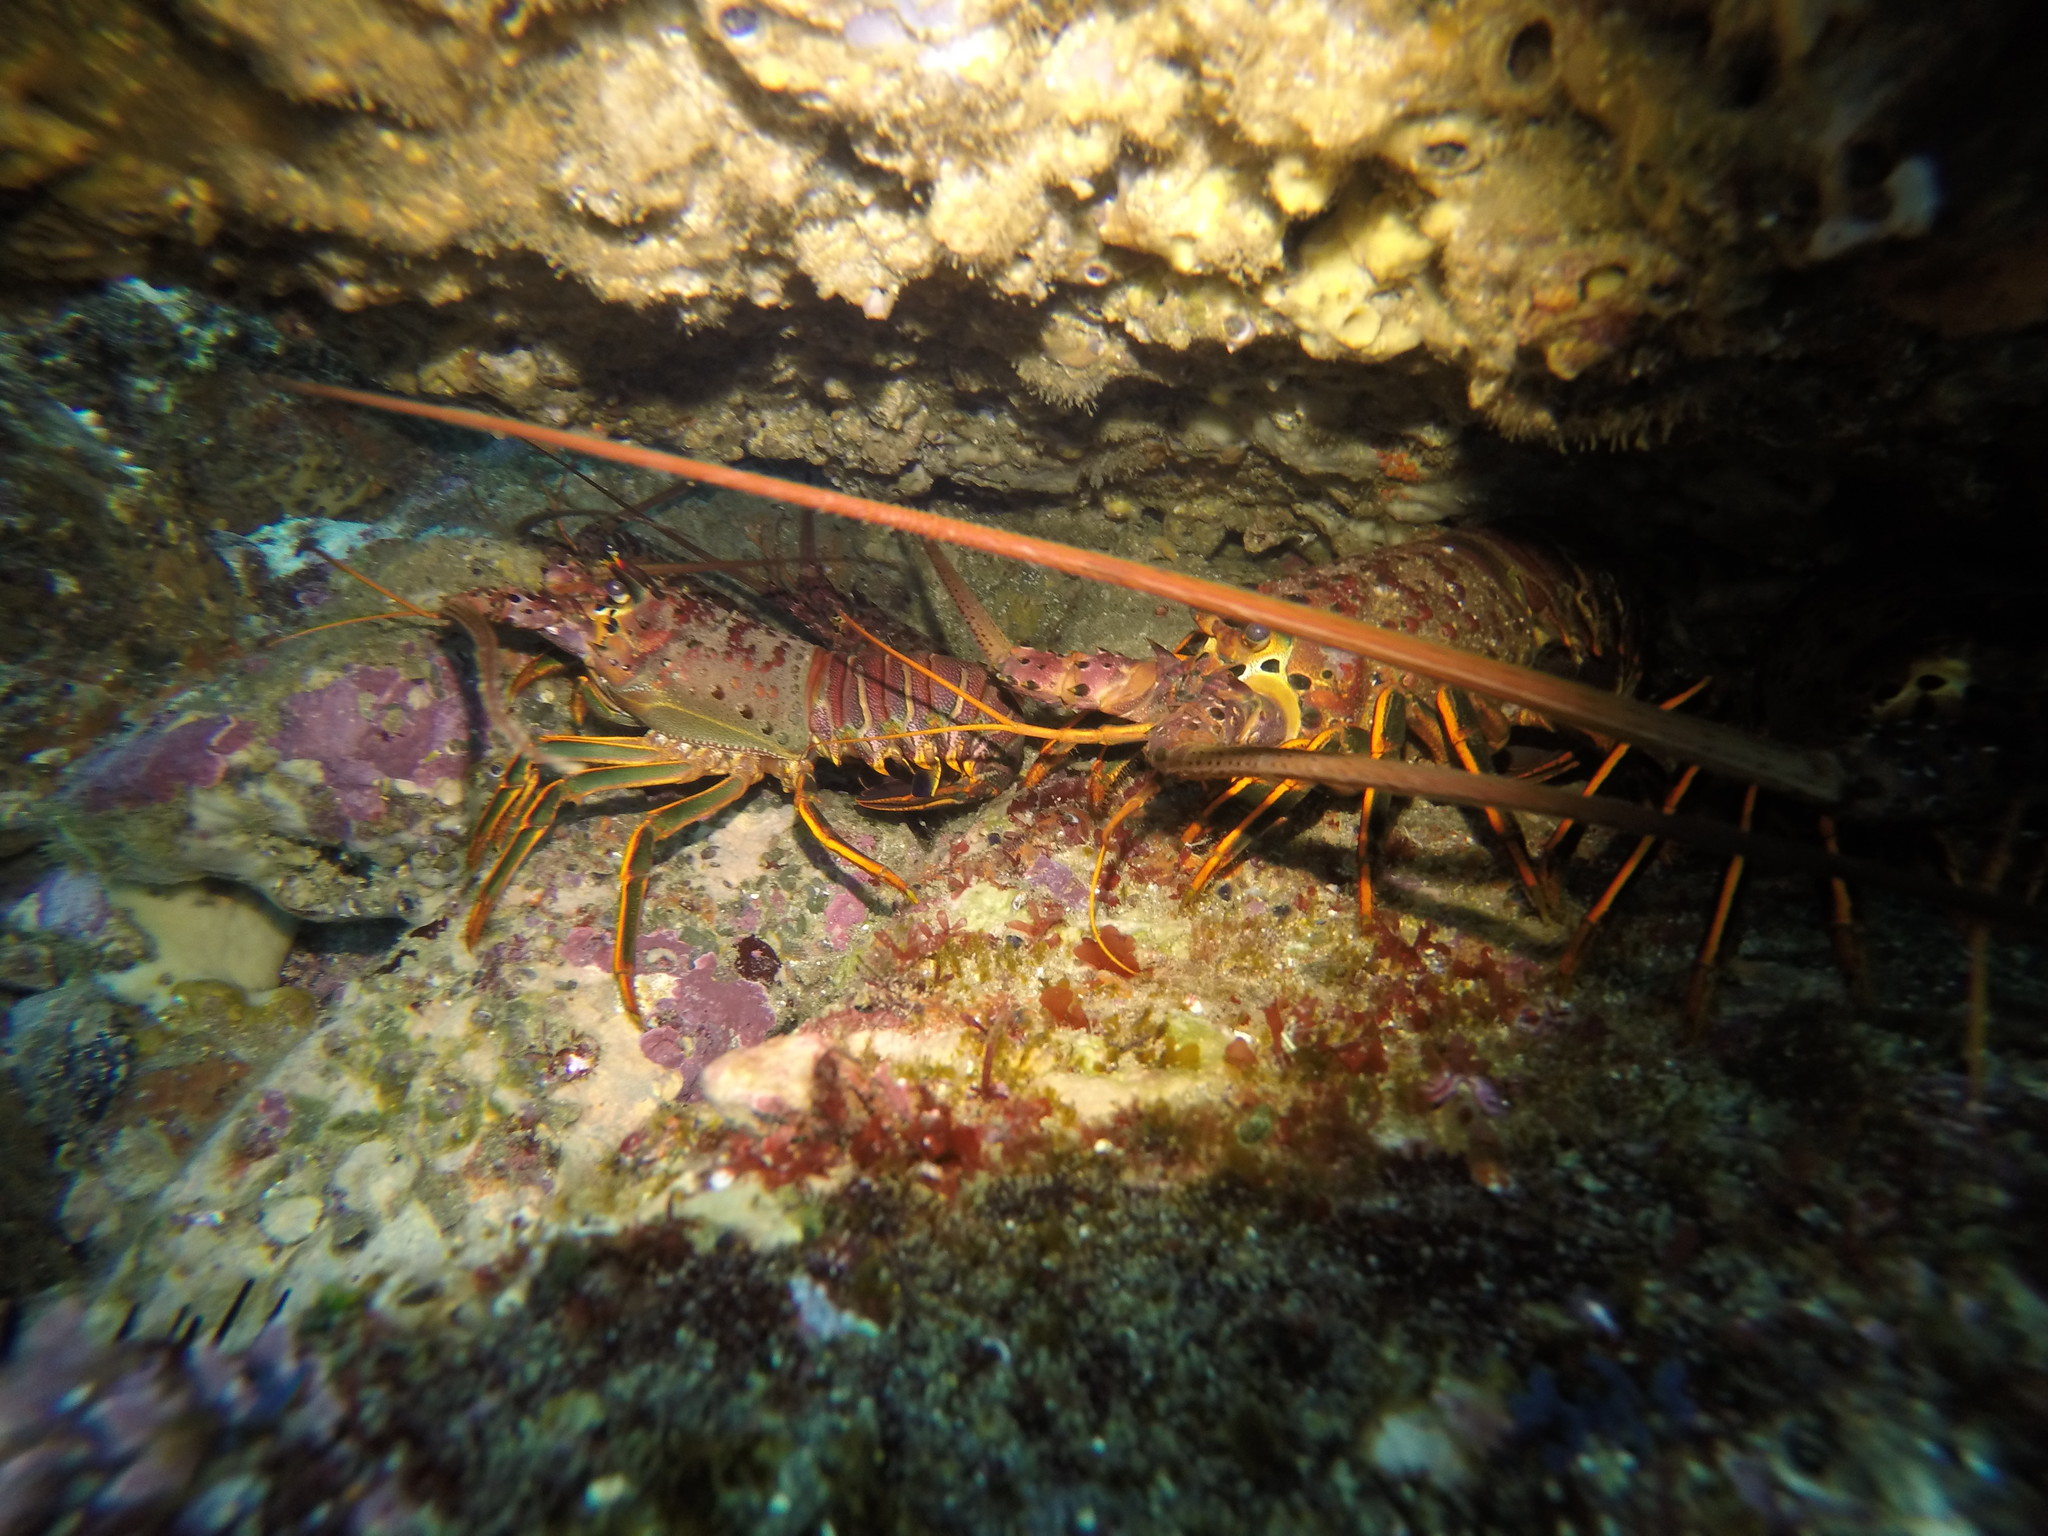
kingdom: Animalia
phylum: Arthropoda
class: Malacostraca
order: Decapoda
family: Palinuridae
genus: Panulirus
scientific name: Panulirus interruptus
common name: California spiny lobster
